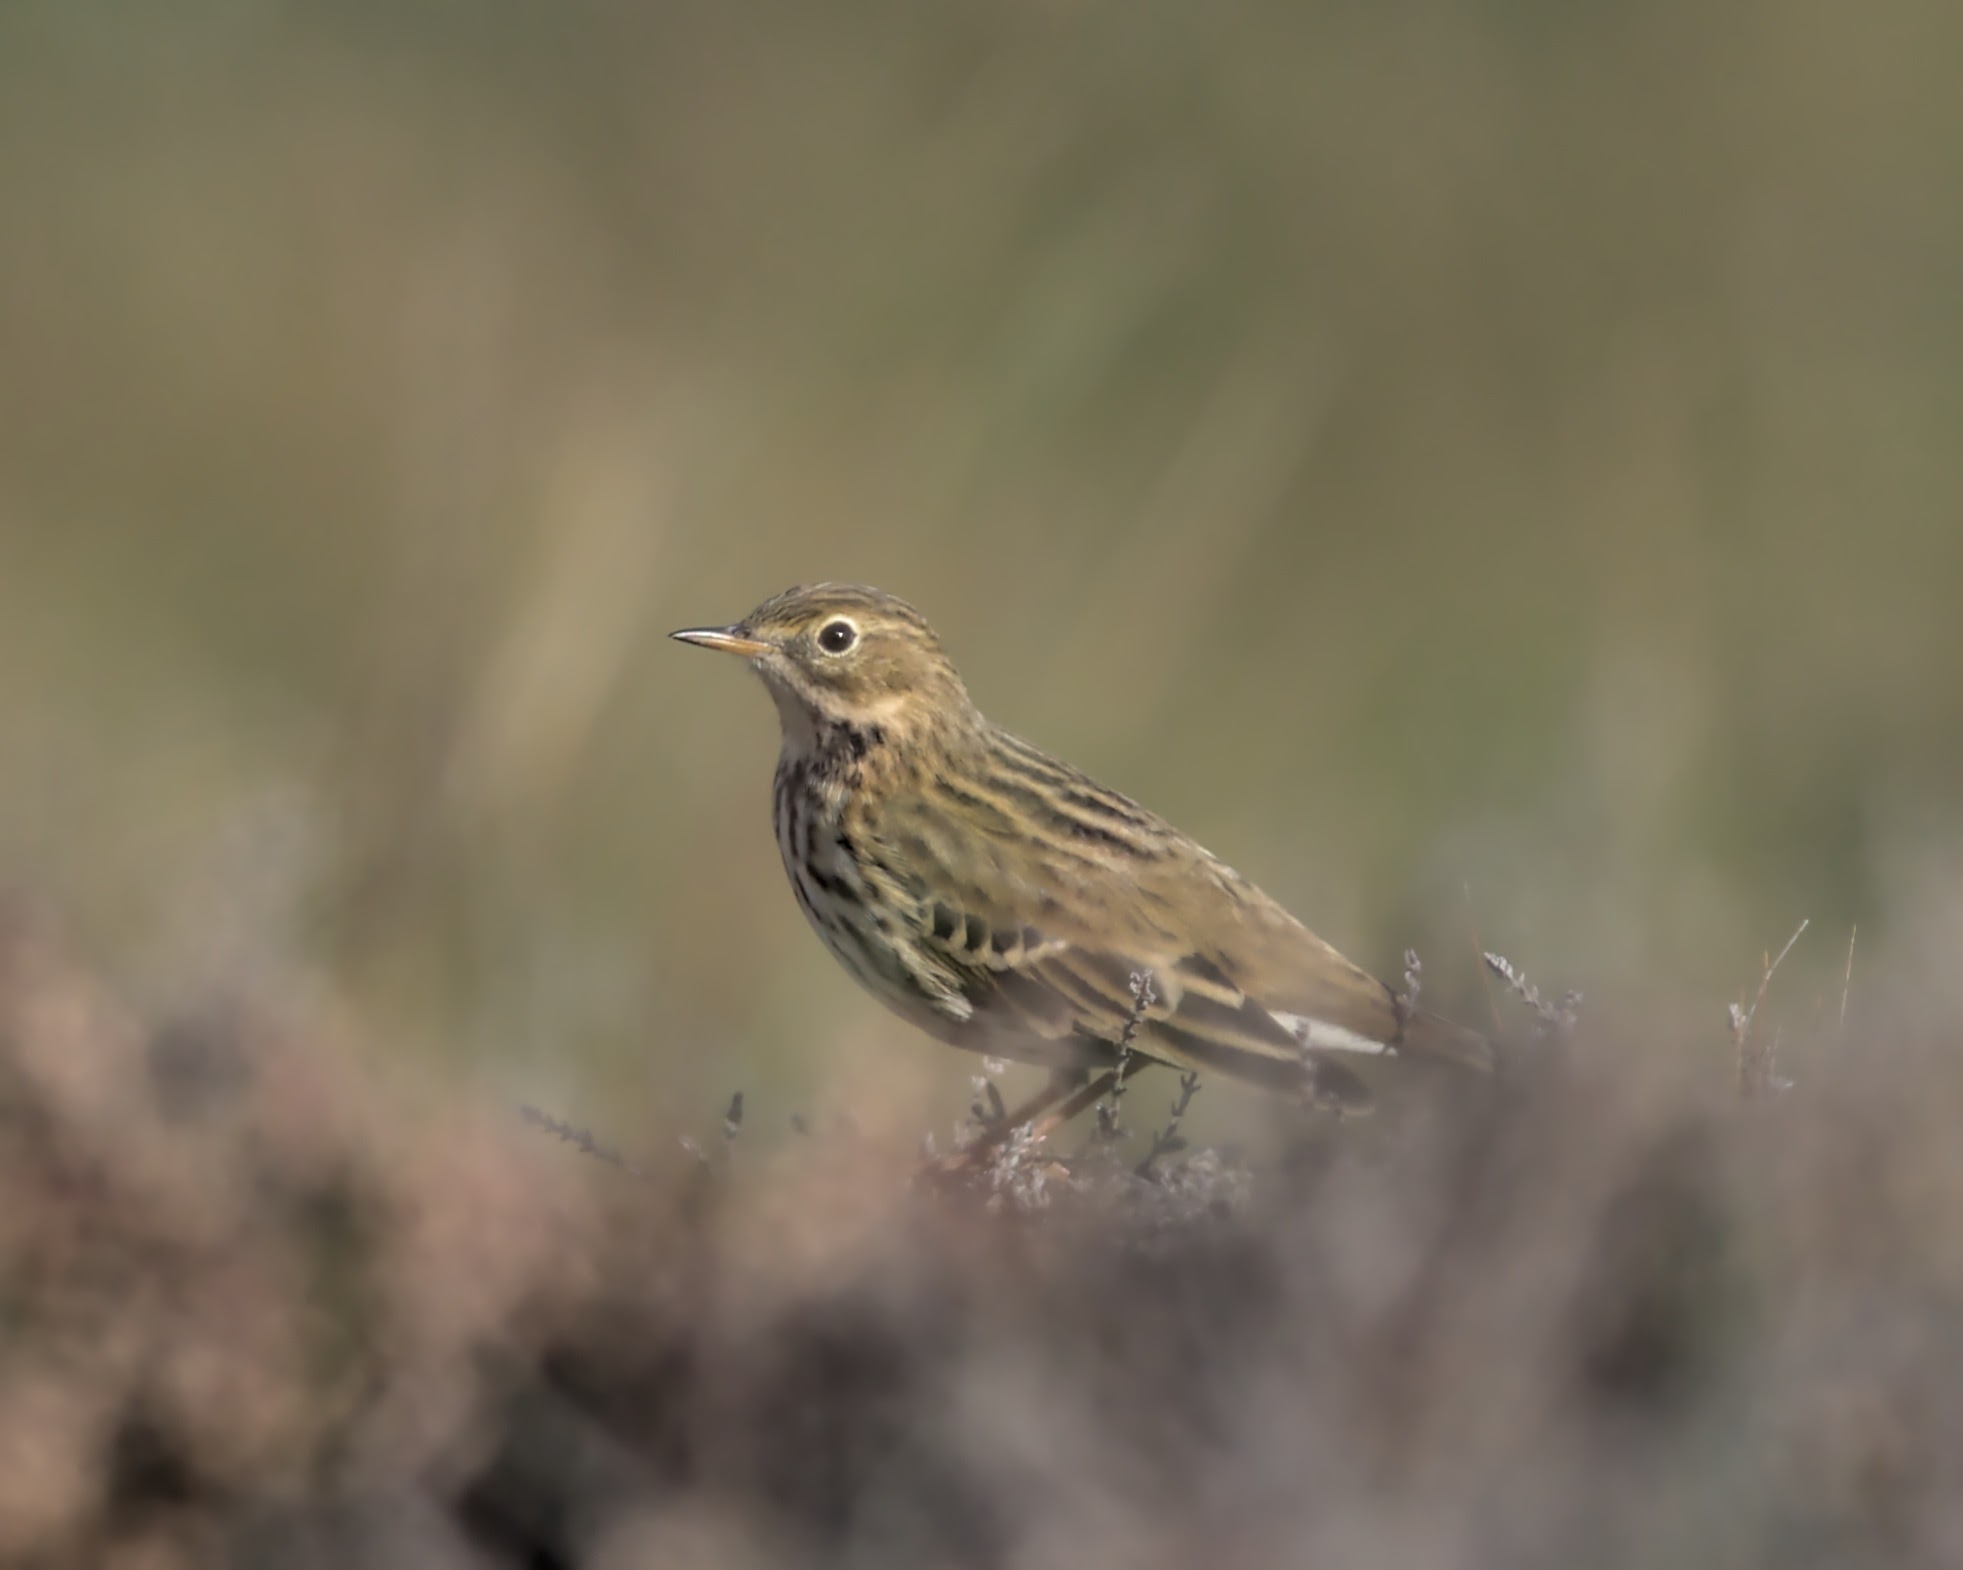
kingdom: Animalia
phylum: Chordata
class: Aves
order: Passeriformes
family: Motacillidae
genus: Anthus
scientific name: Anthus pratensis
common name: Meadow pipit
